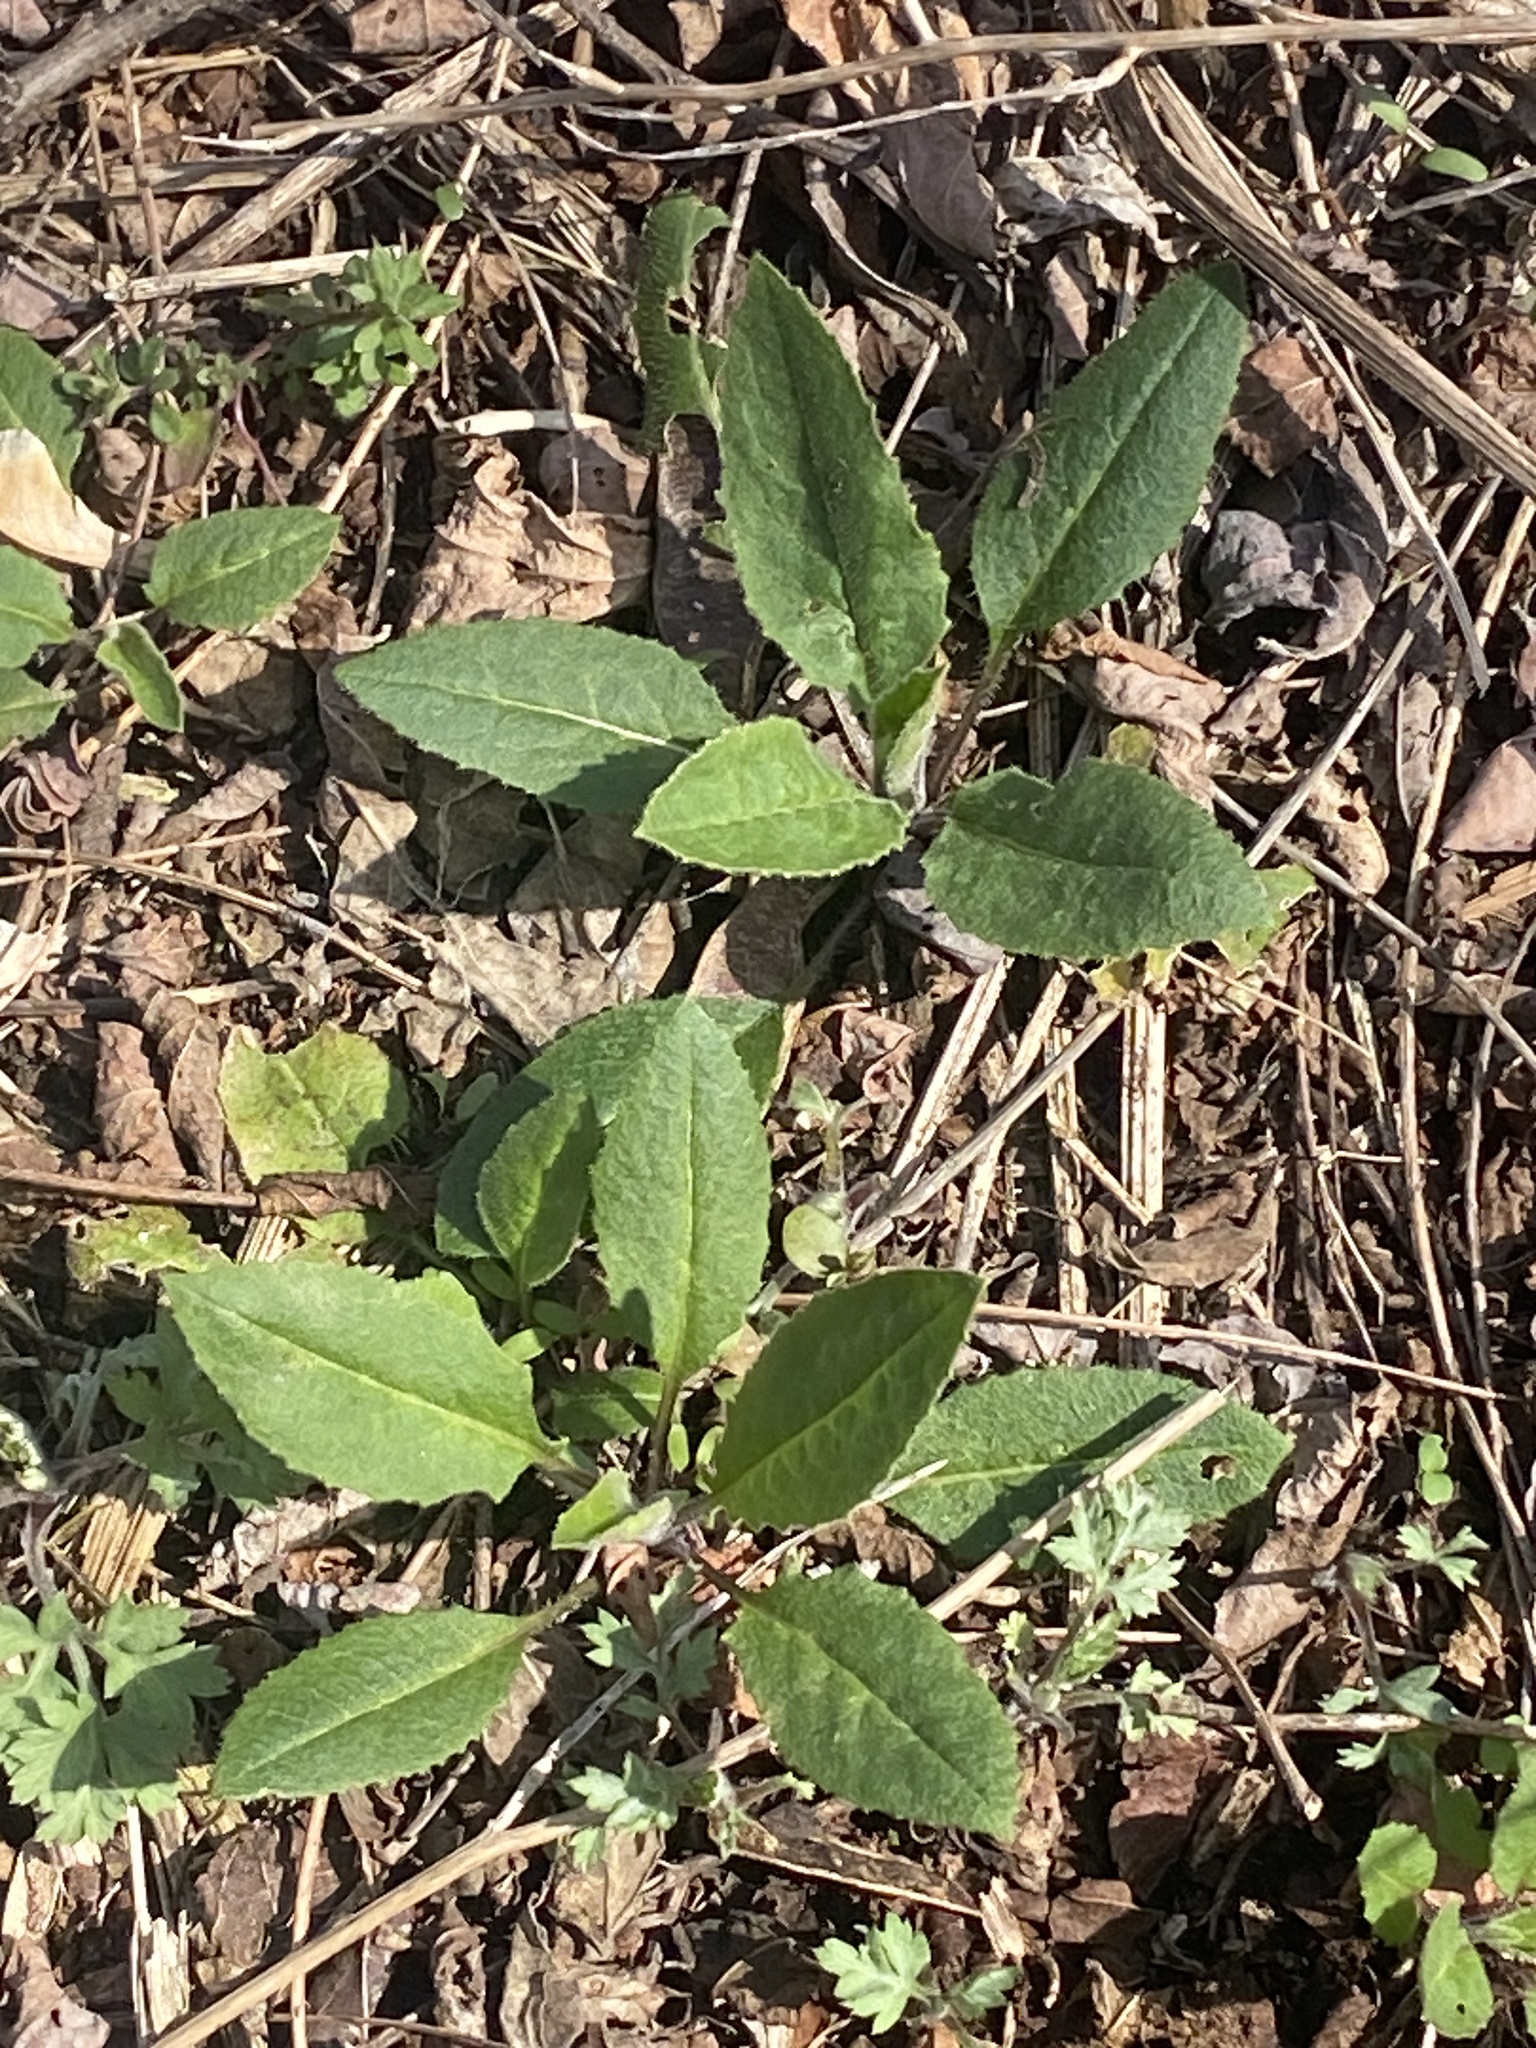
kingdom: Plantae
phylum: Tracheophyta
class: Magnoliopsida
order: Brassicales
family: Brassicaceae
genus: Hesperis
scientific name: Hesperis matronalis
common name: Dame's-violet
